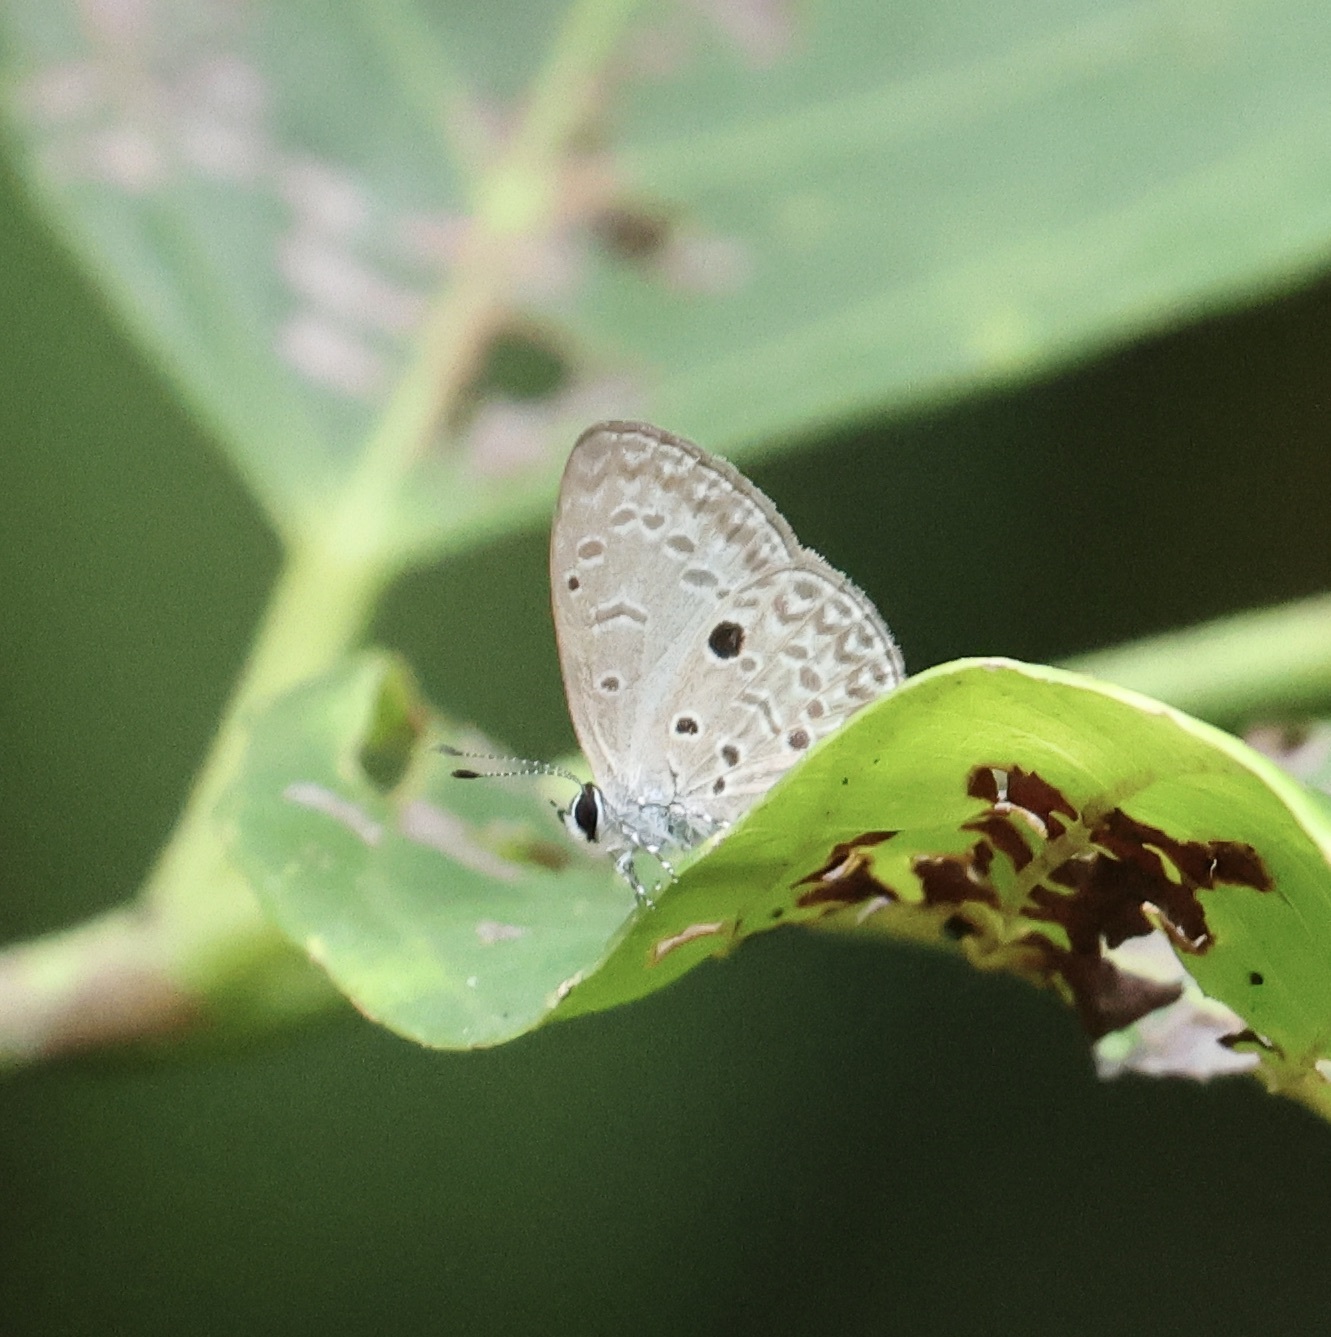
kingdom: Animalia
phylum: Arthropoda
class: Insecta
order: Lepidoptera
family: Lycaenidae
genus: Acytolepis
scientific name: Acytolepis
